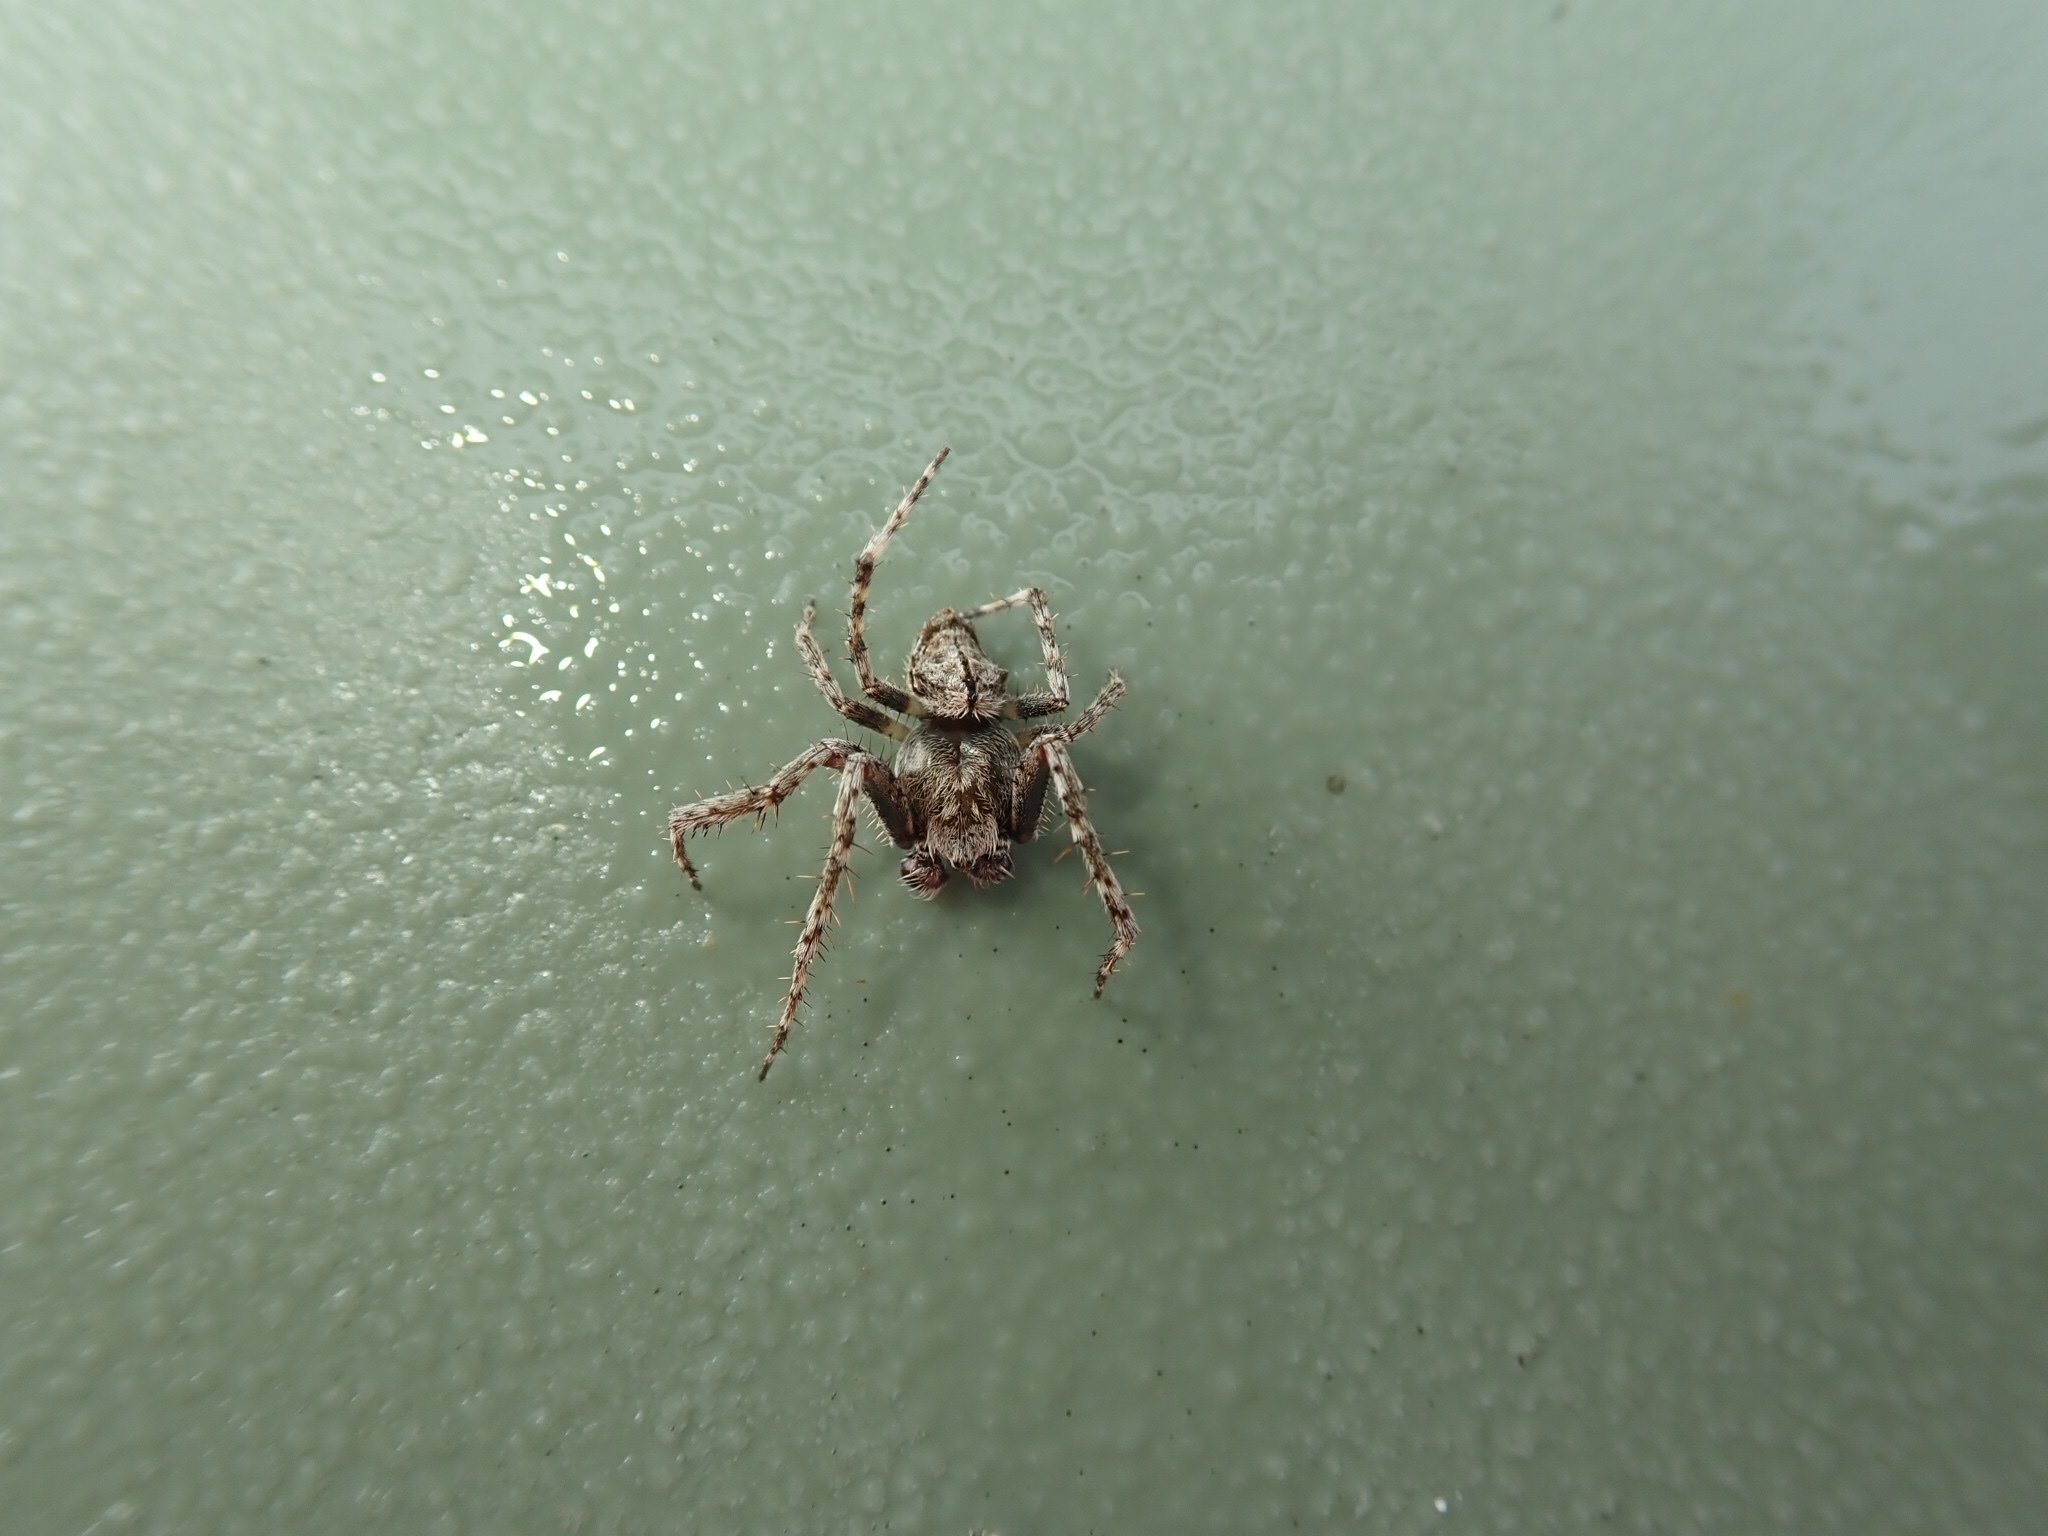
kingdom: Animalia
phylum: Arthropoda
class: Arachnida
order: Araneae
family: Araneidae
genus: Eriophora
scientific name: Eriophora pustulosa
